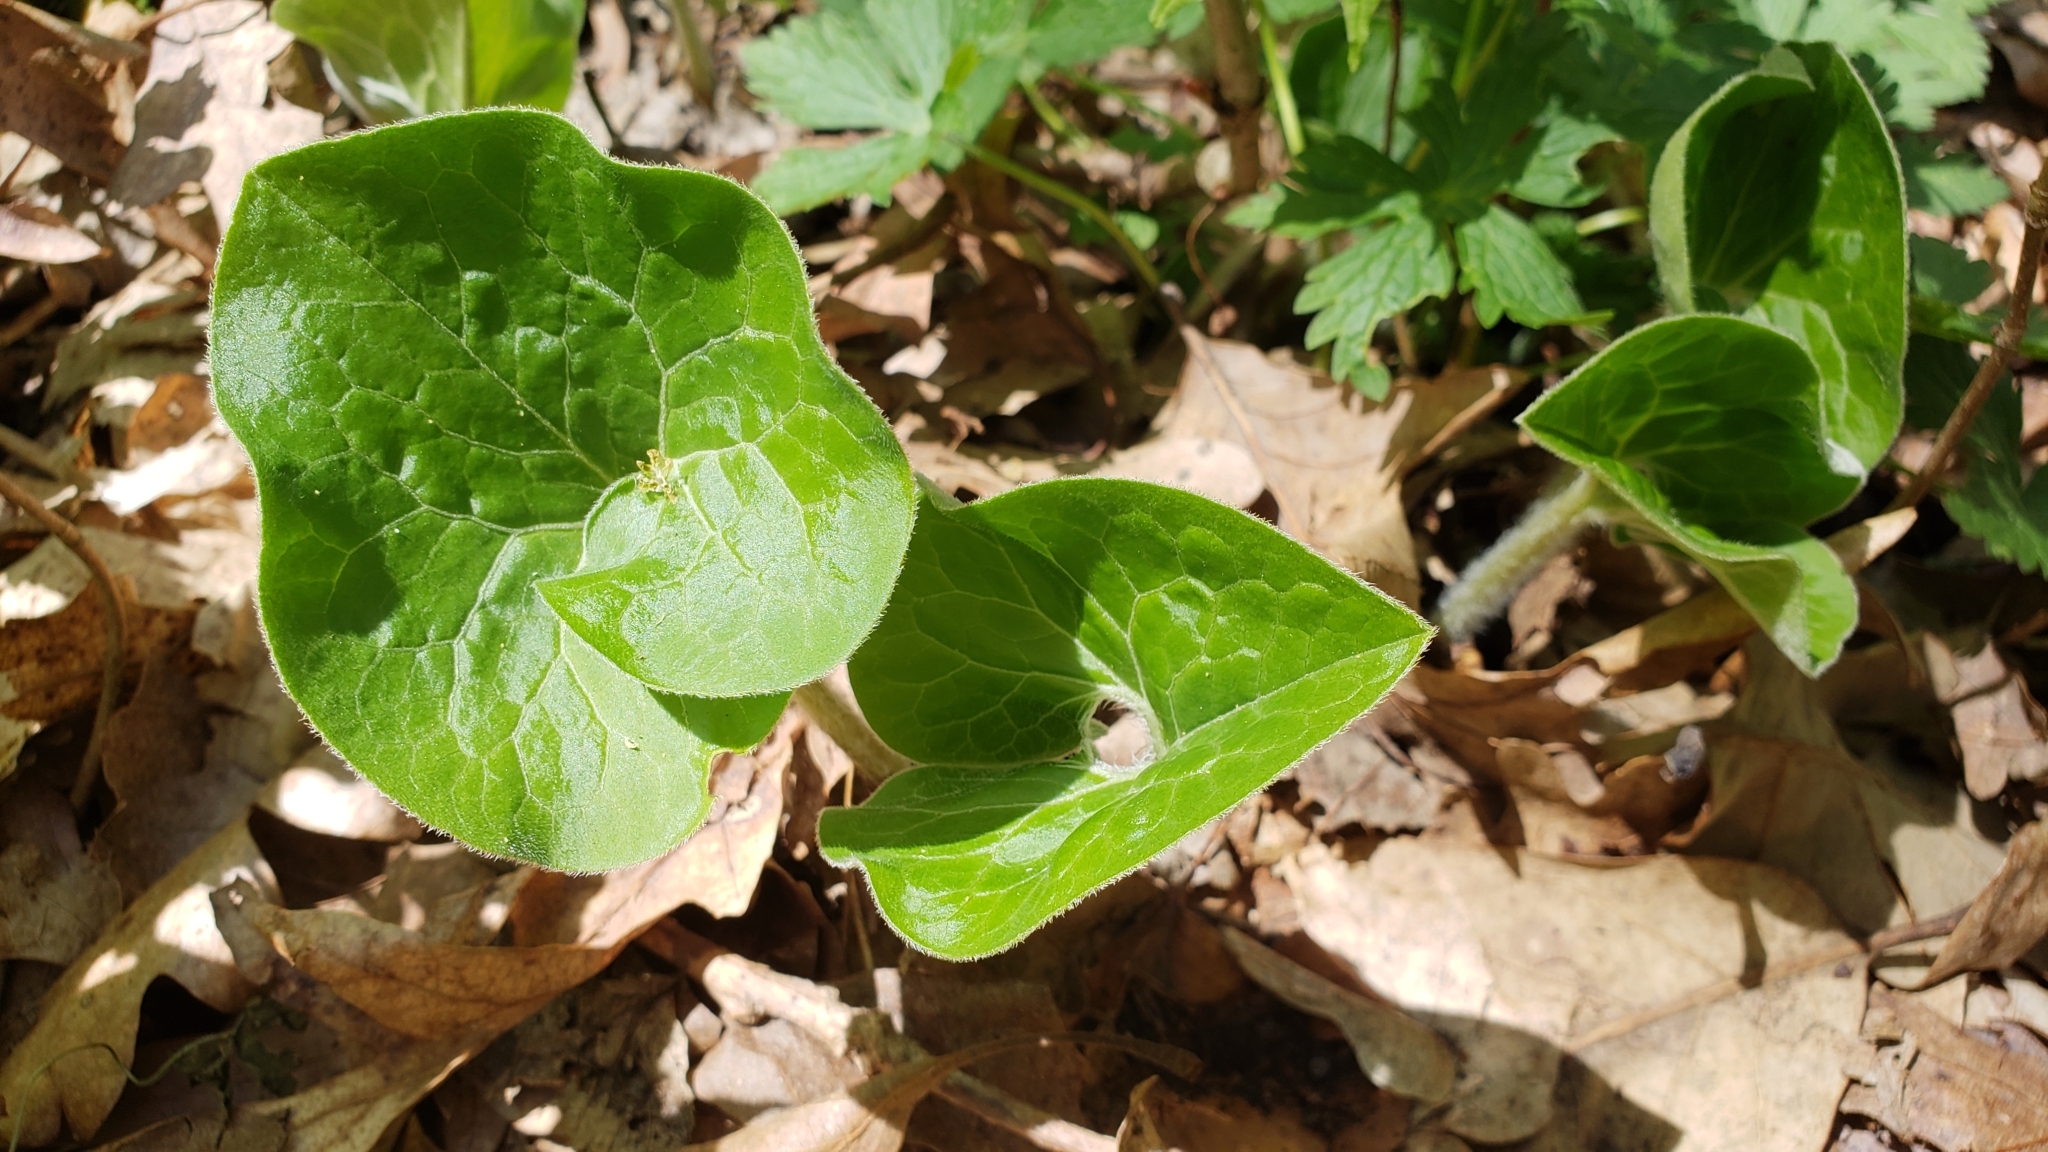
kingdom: Plantae
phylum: Tracheophyta
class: Magnoliopsida
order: Piperales
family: Aristolochiaceae
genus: Asarum
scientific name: Asarum canadense
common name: Wild ginger
